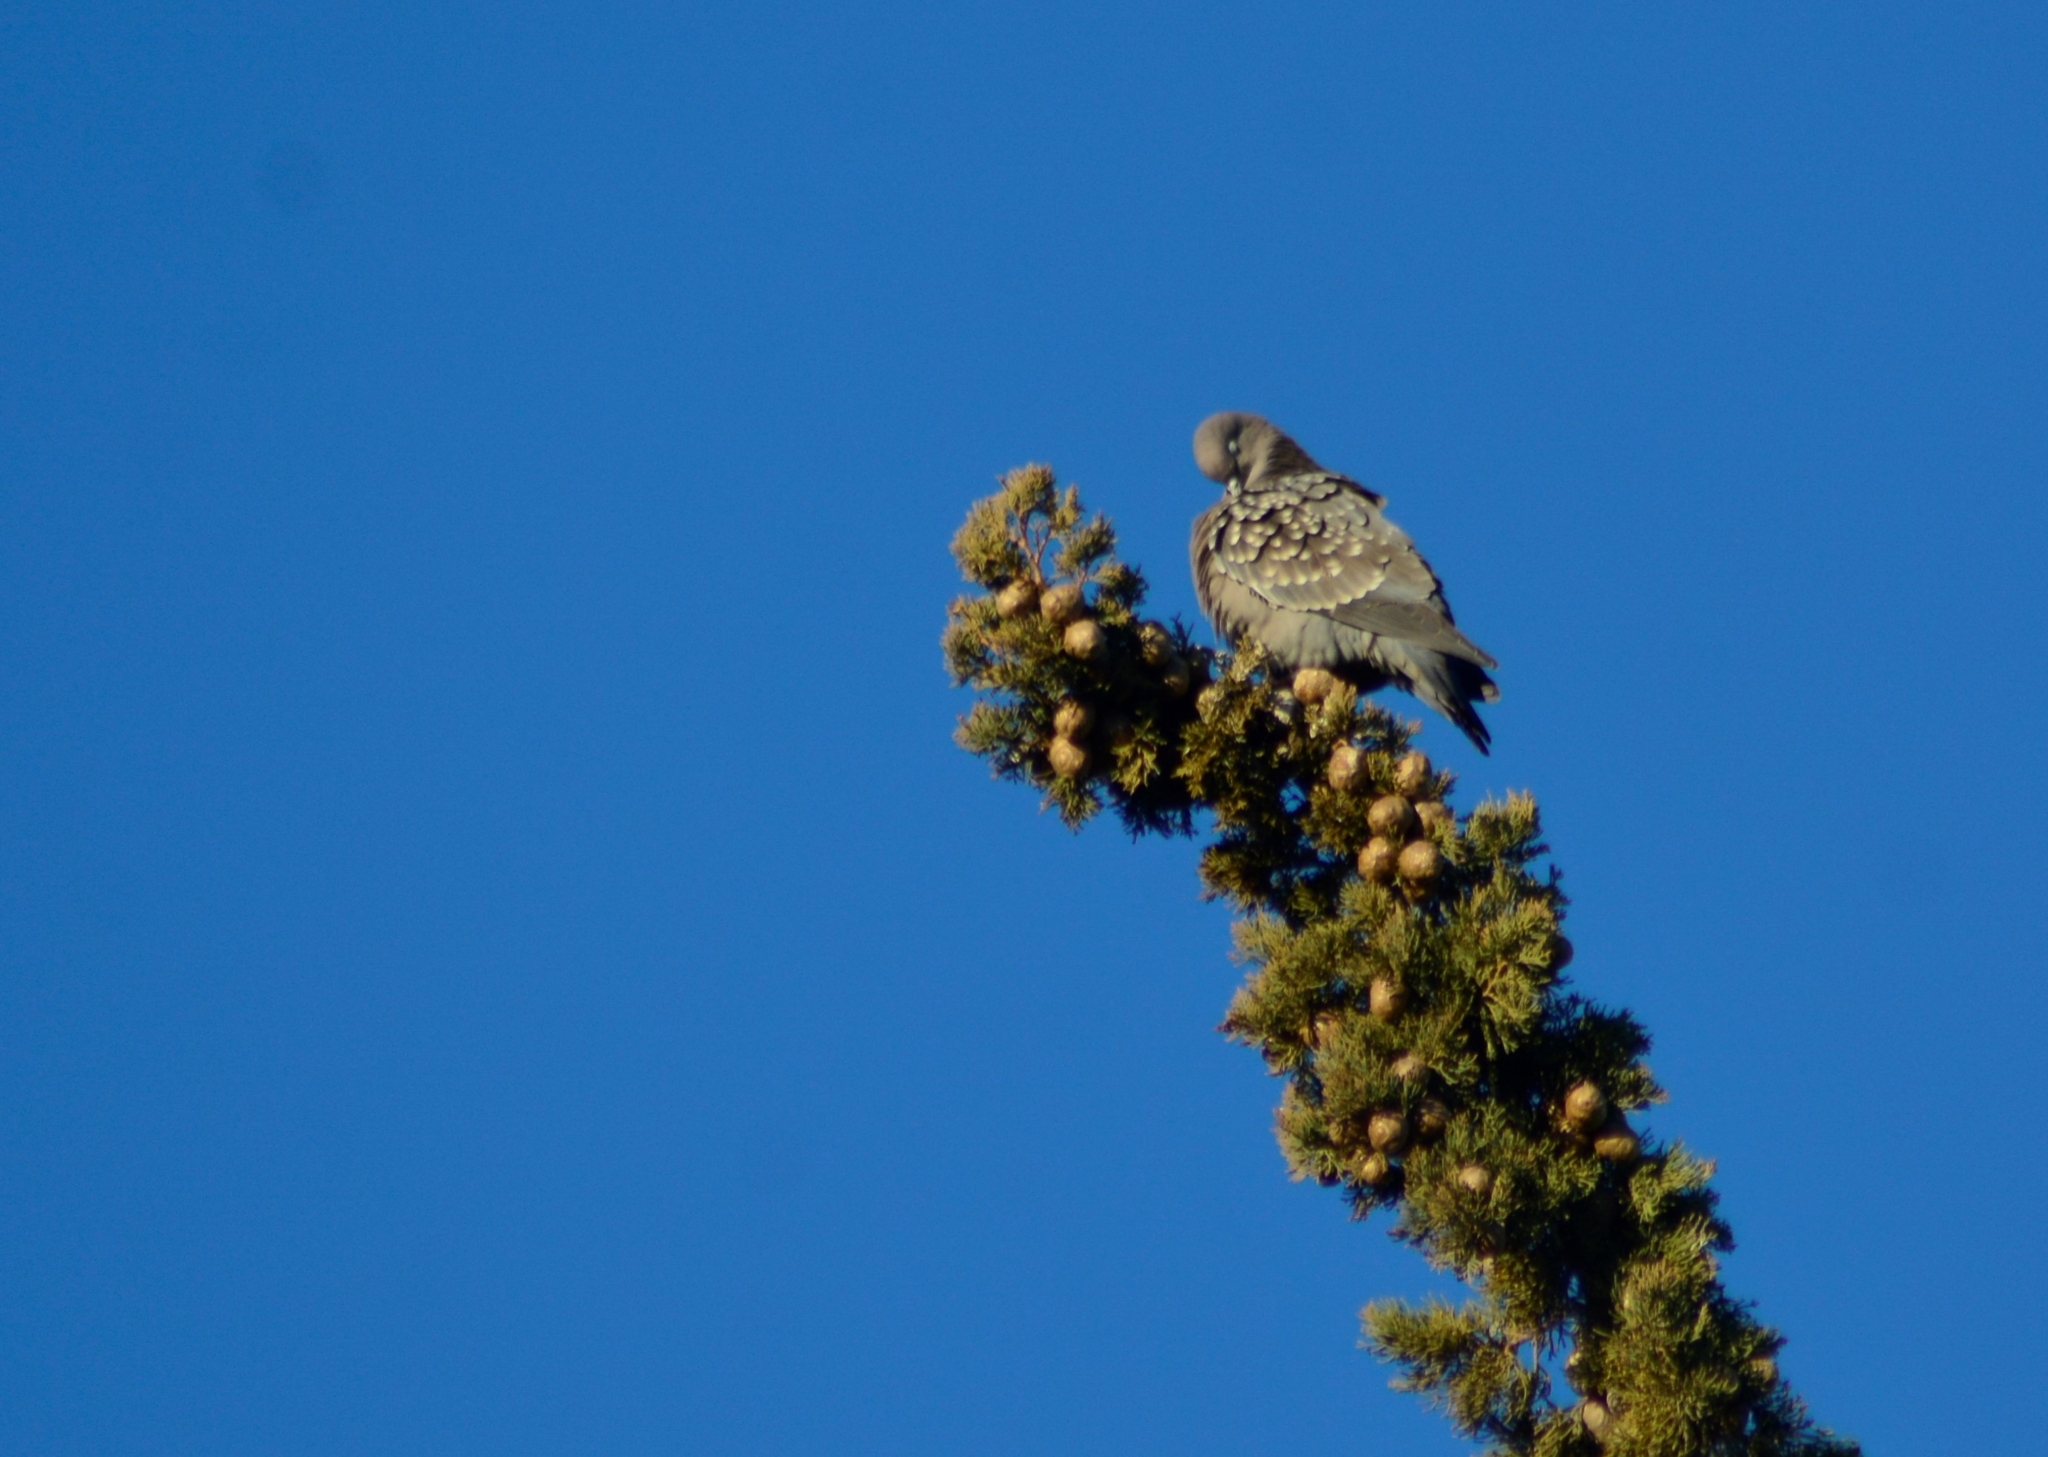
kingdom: Animalia
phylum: Chordata
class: Aves
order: Columbiformes
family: Columbidae
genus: Patagioenas
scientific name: Patagioenas maculosa
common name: Spot-winged pigeon
